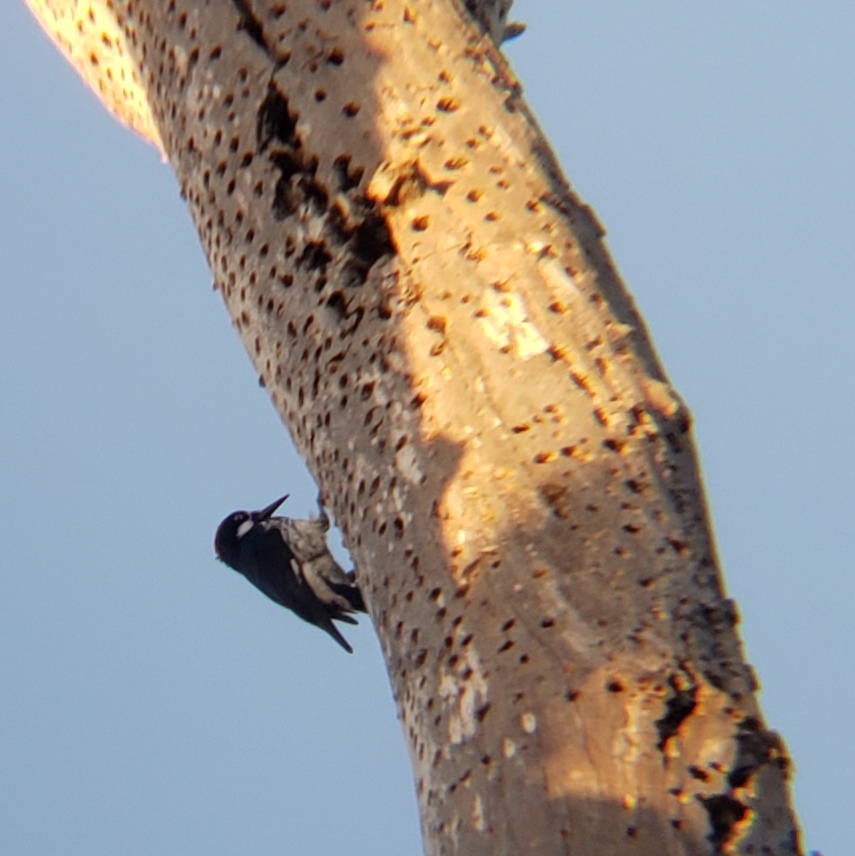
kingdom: Animalia
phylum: Chordata
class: Aves
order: Piciformes
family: Picidae
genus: Melanerpes
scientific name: Melanerpes formicivorus
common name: Acorn woodpecker
